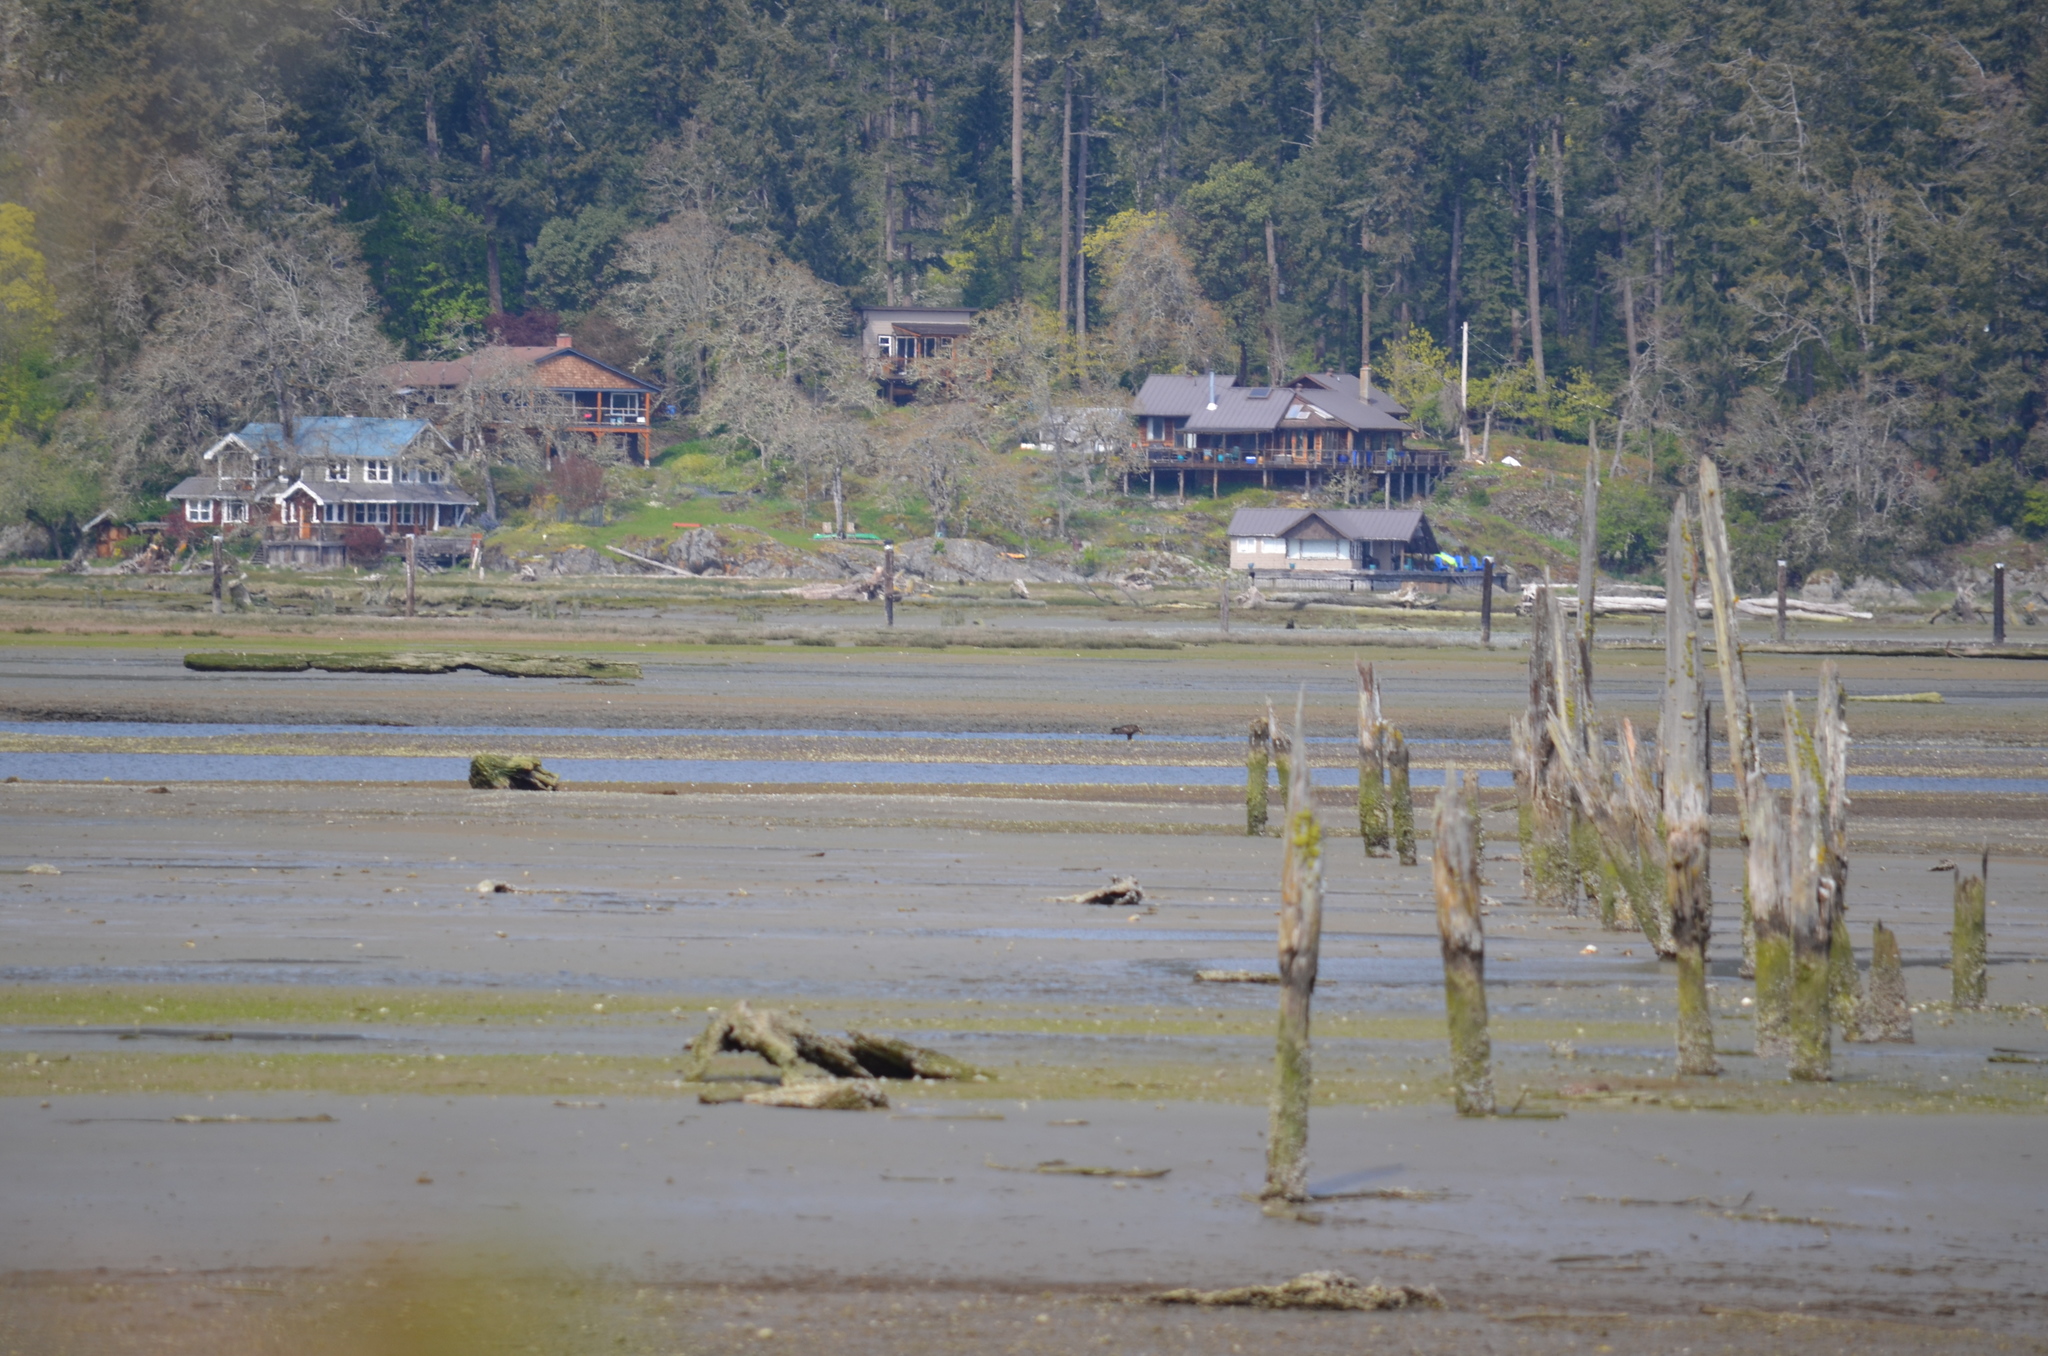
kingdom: Animalia
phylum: Chordata
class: Aves
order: Accipitriformes
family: Accipitridae
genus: Haliaeetus
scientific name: Haliaeetus leucocephalus
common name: Bald eagle
